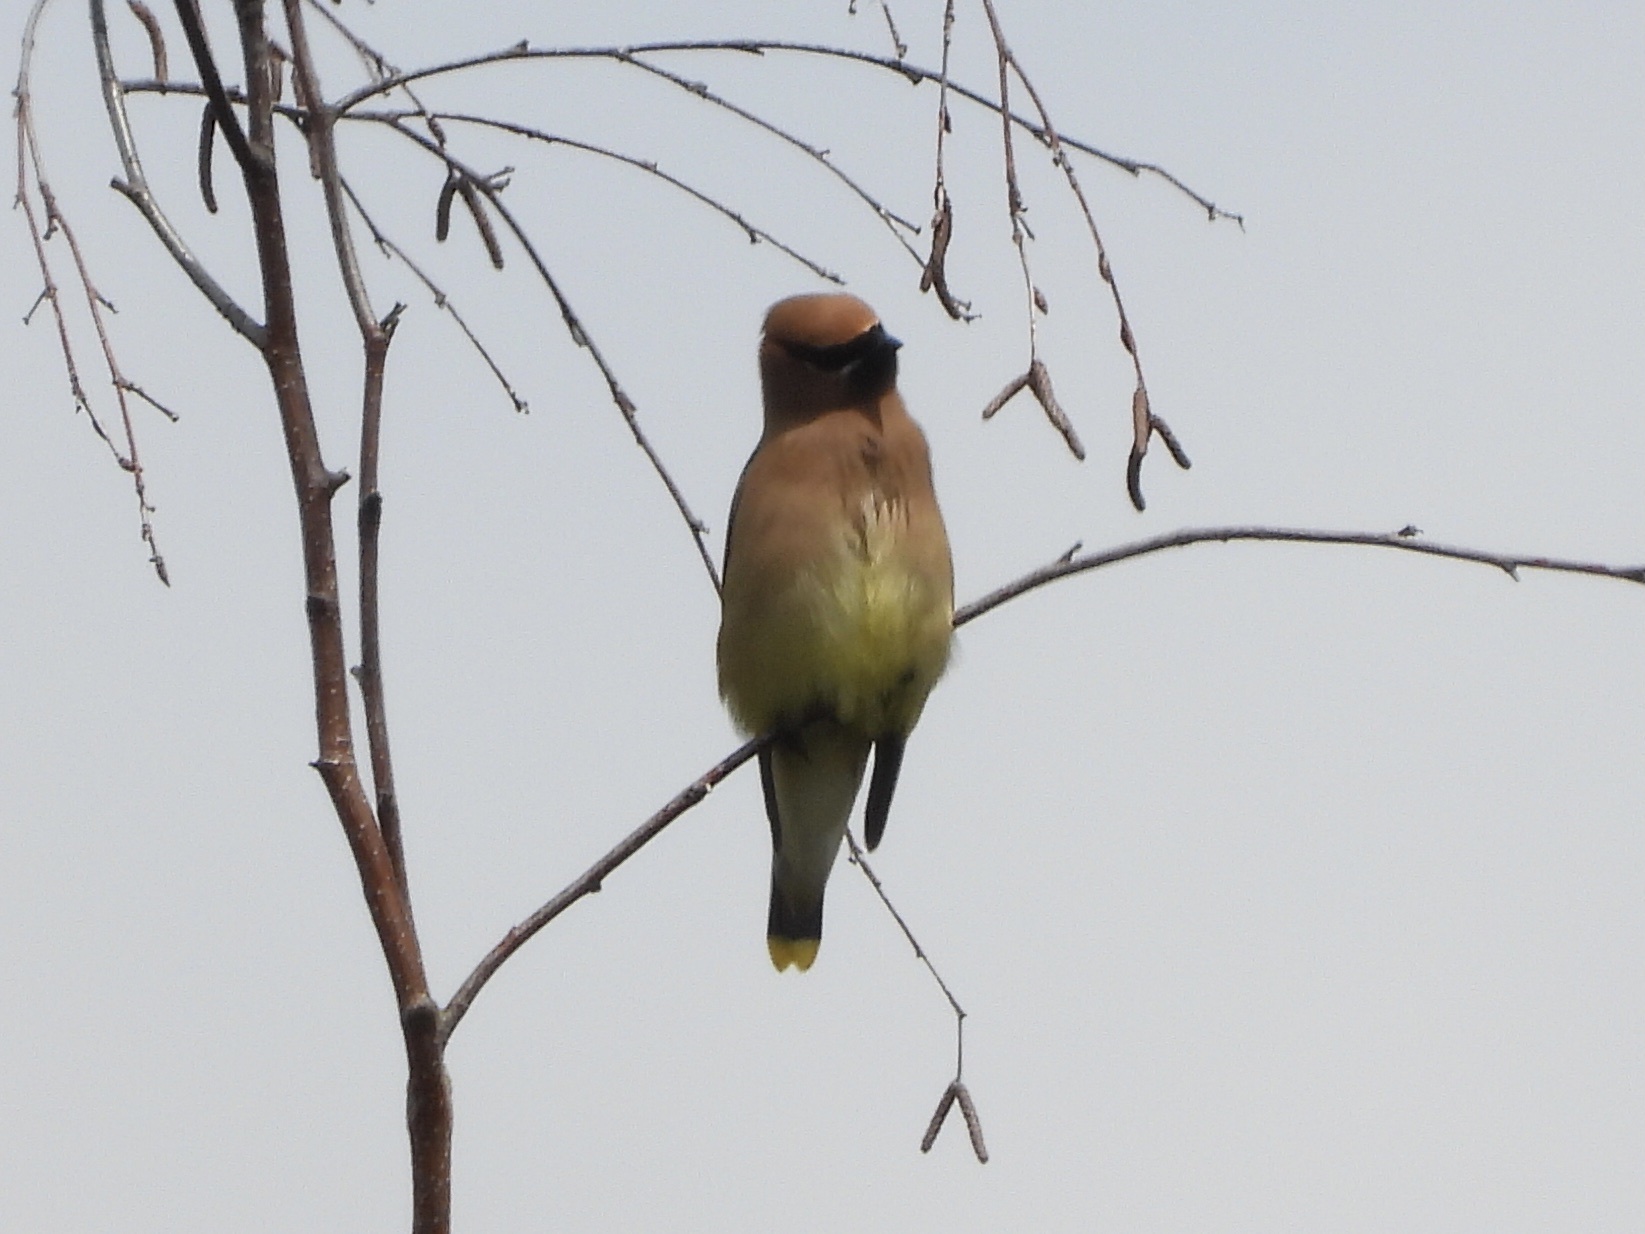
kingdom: Animalia
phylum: Chordata
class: Aves
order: Passeriformes
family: Bombycillidae
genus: Bombycilla
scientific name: Bombycilla cedrorum
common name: Cedar waxwing
